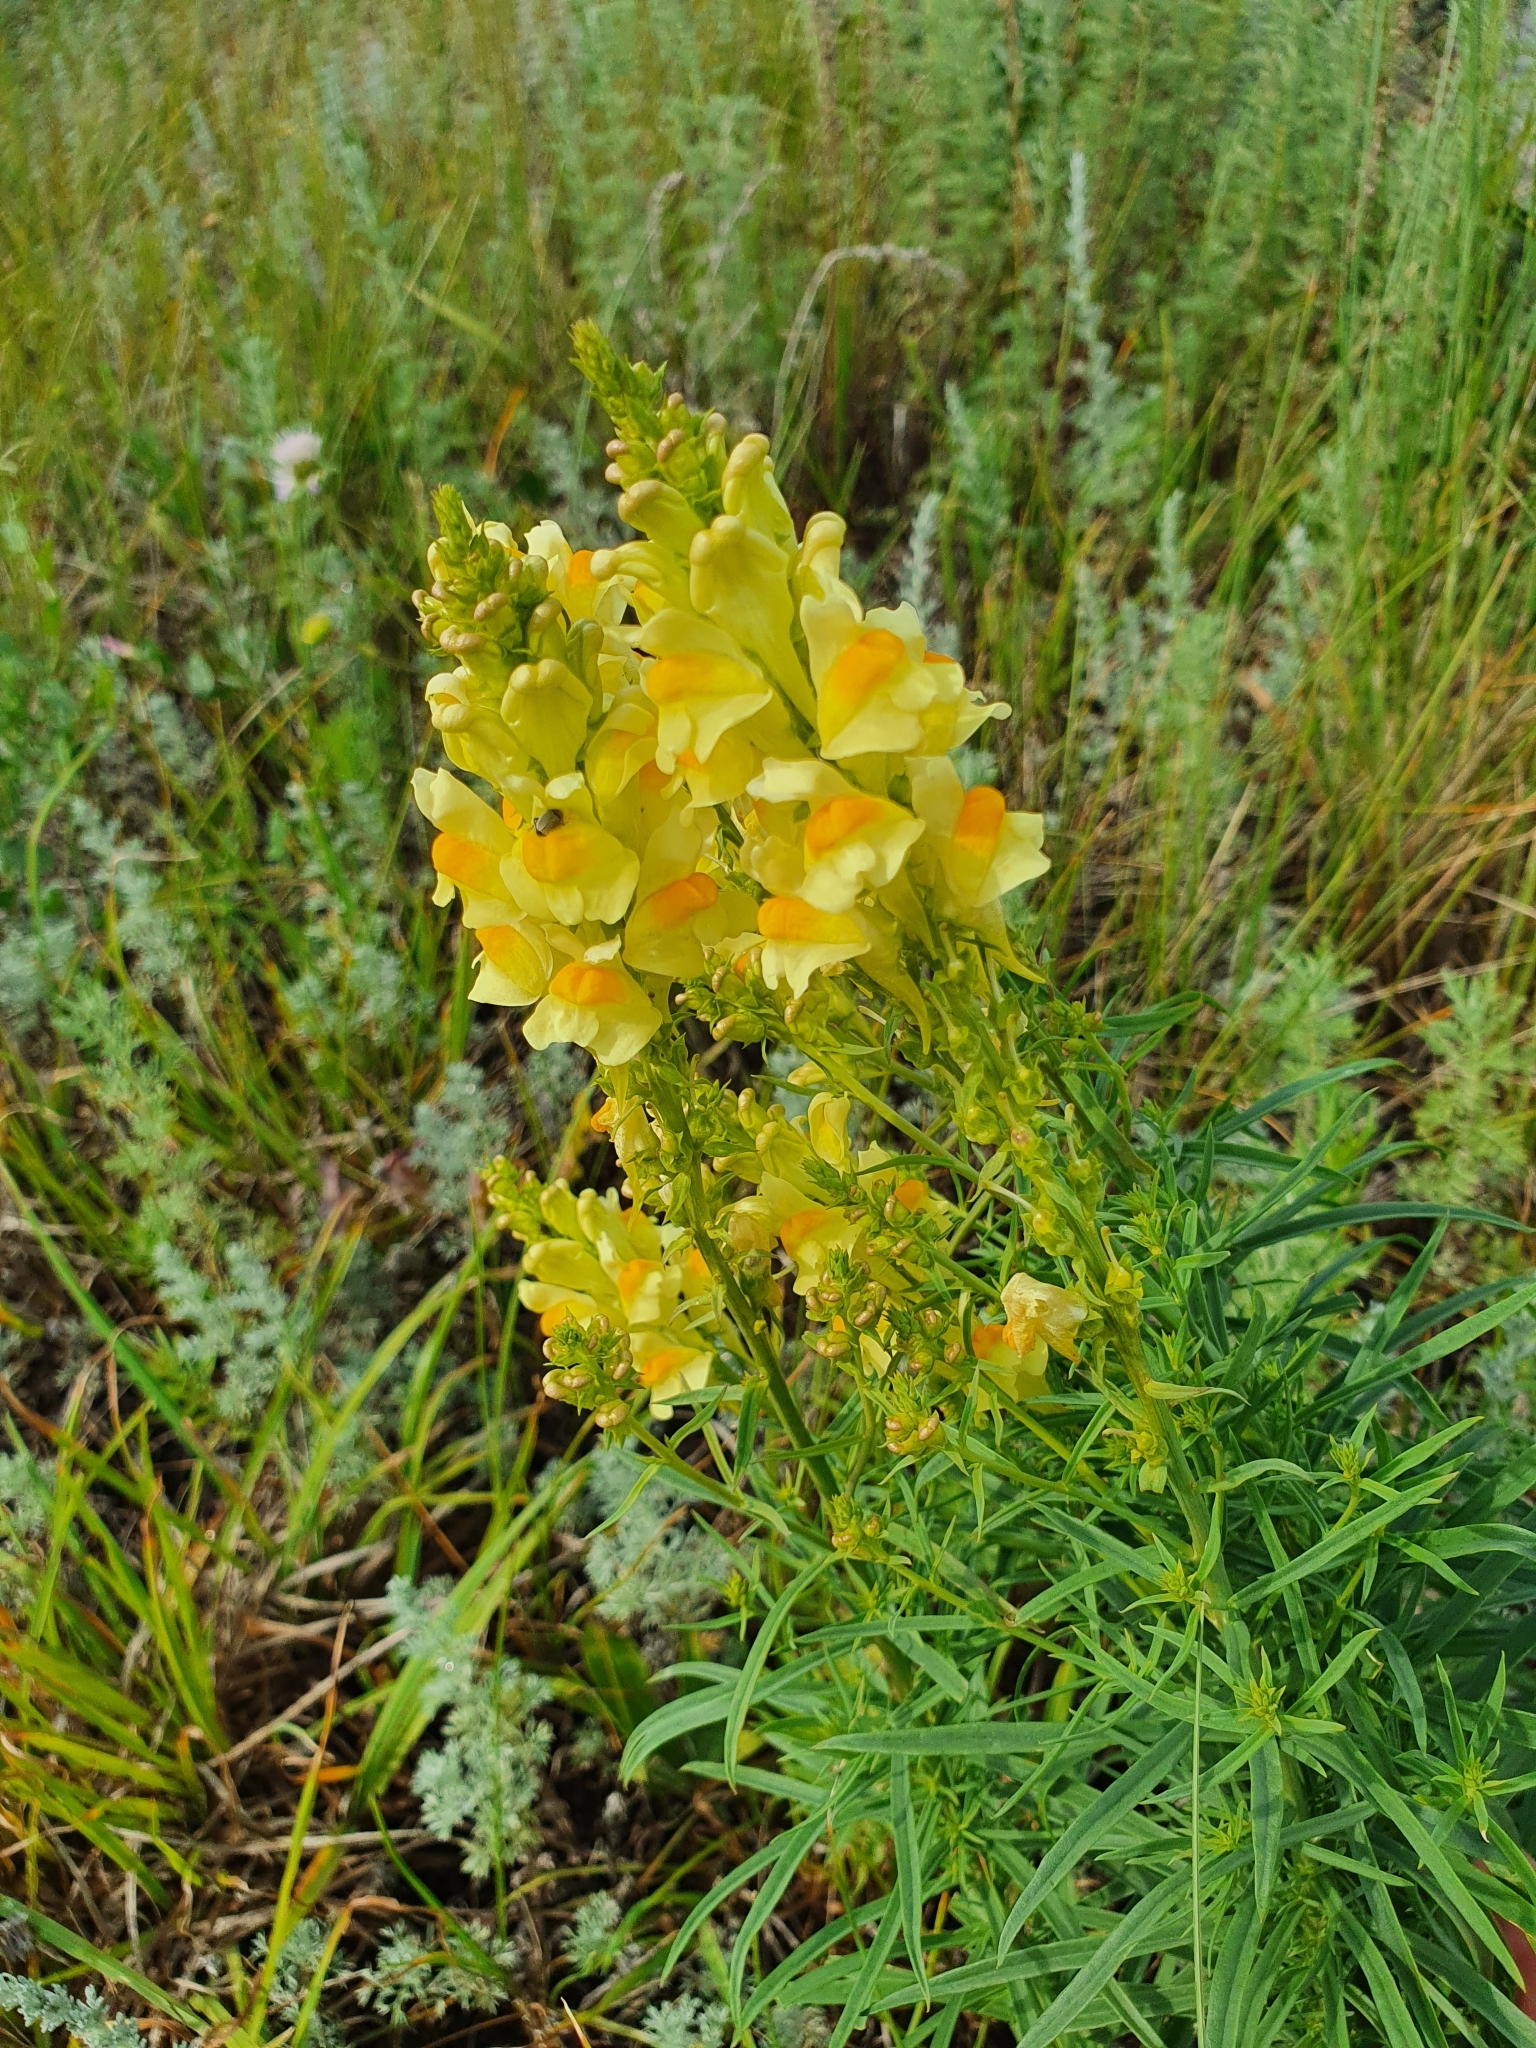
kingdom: Plantae
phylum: Tracheophyta
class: Magnoliopsida
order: Lamiales
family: Plantaginaceae
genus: Linaria
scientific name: Linaria vulgaris
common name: Butter and eggs
